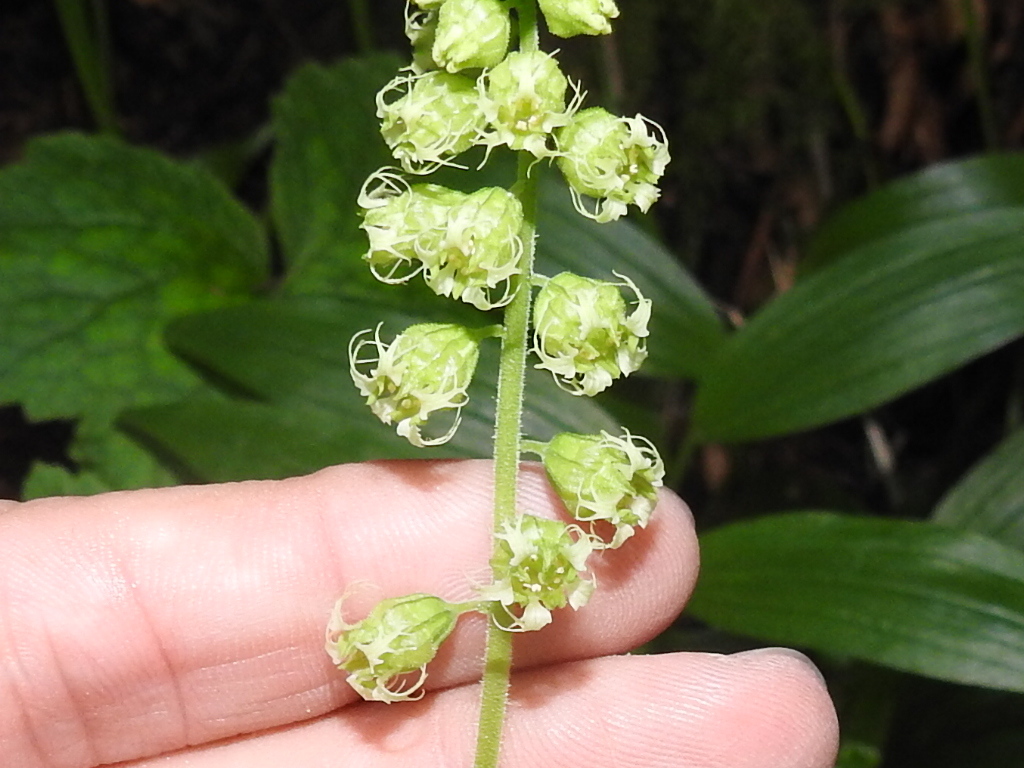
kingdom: Plantae
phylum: Tracheophyta
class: Magnoliopsida
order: Saxifragales
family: Saxifragaceae
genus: Tellima
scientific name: Tellima grandiflora
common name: Fringecups
